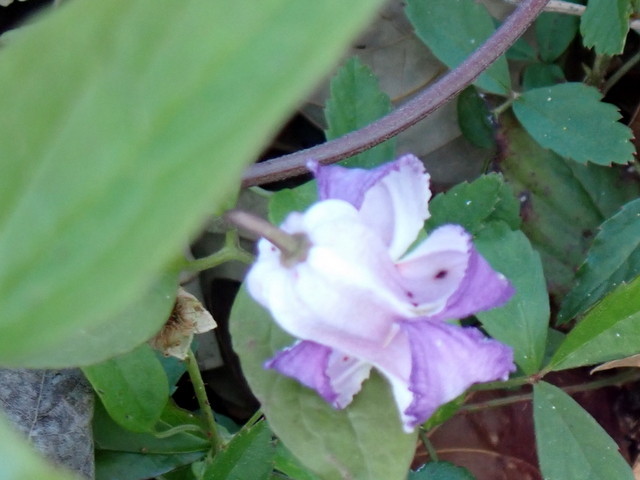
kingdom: Plantae
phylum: Tracheophyta
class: Magnoliopsida
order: Ranunculales
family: Ranunculaceae
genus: Clematis
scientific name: Clematis crispa
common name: Curly clematis
